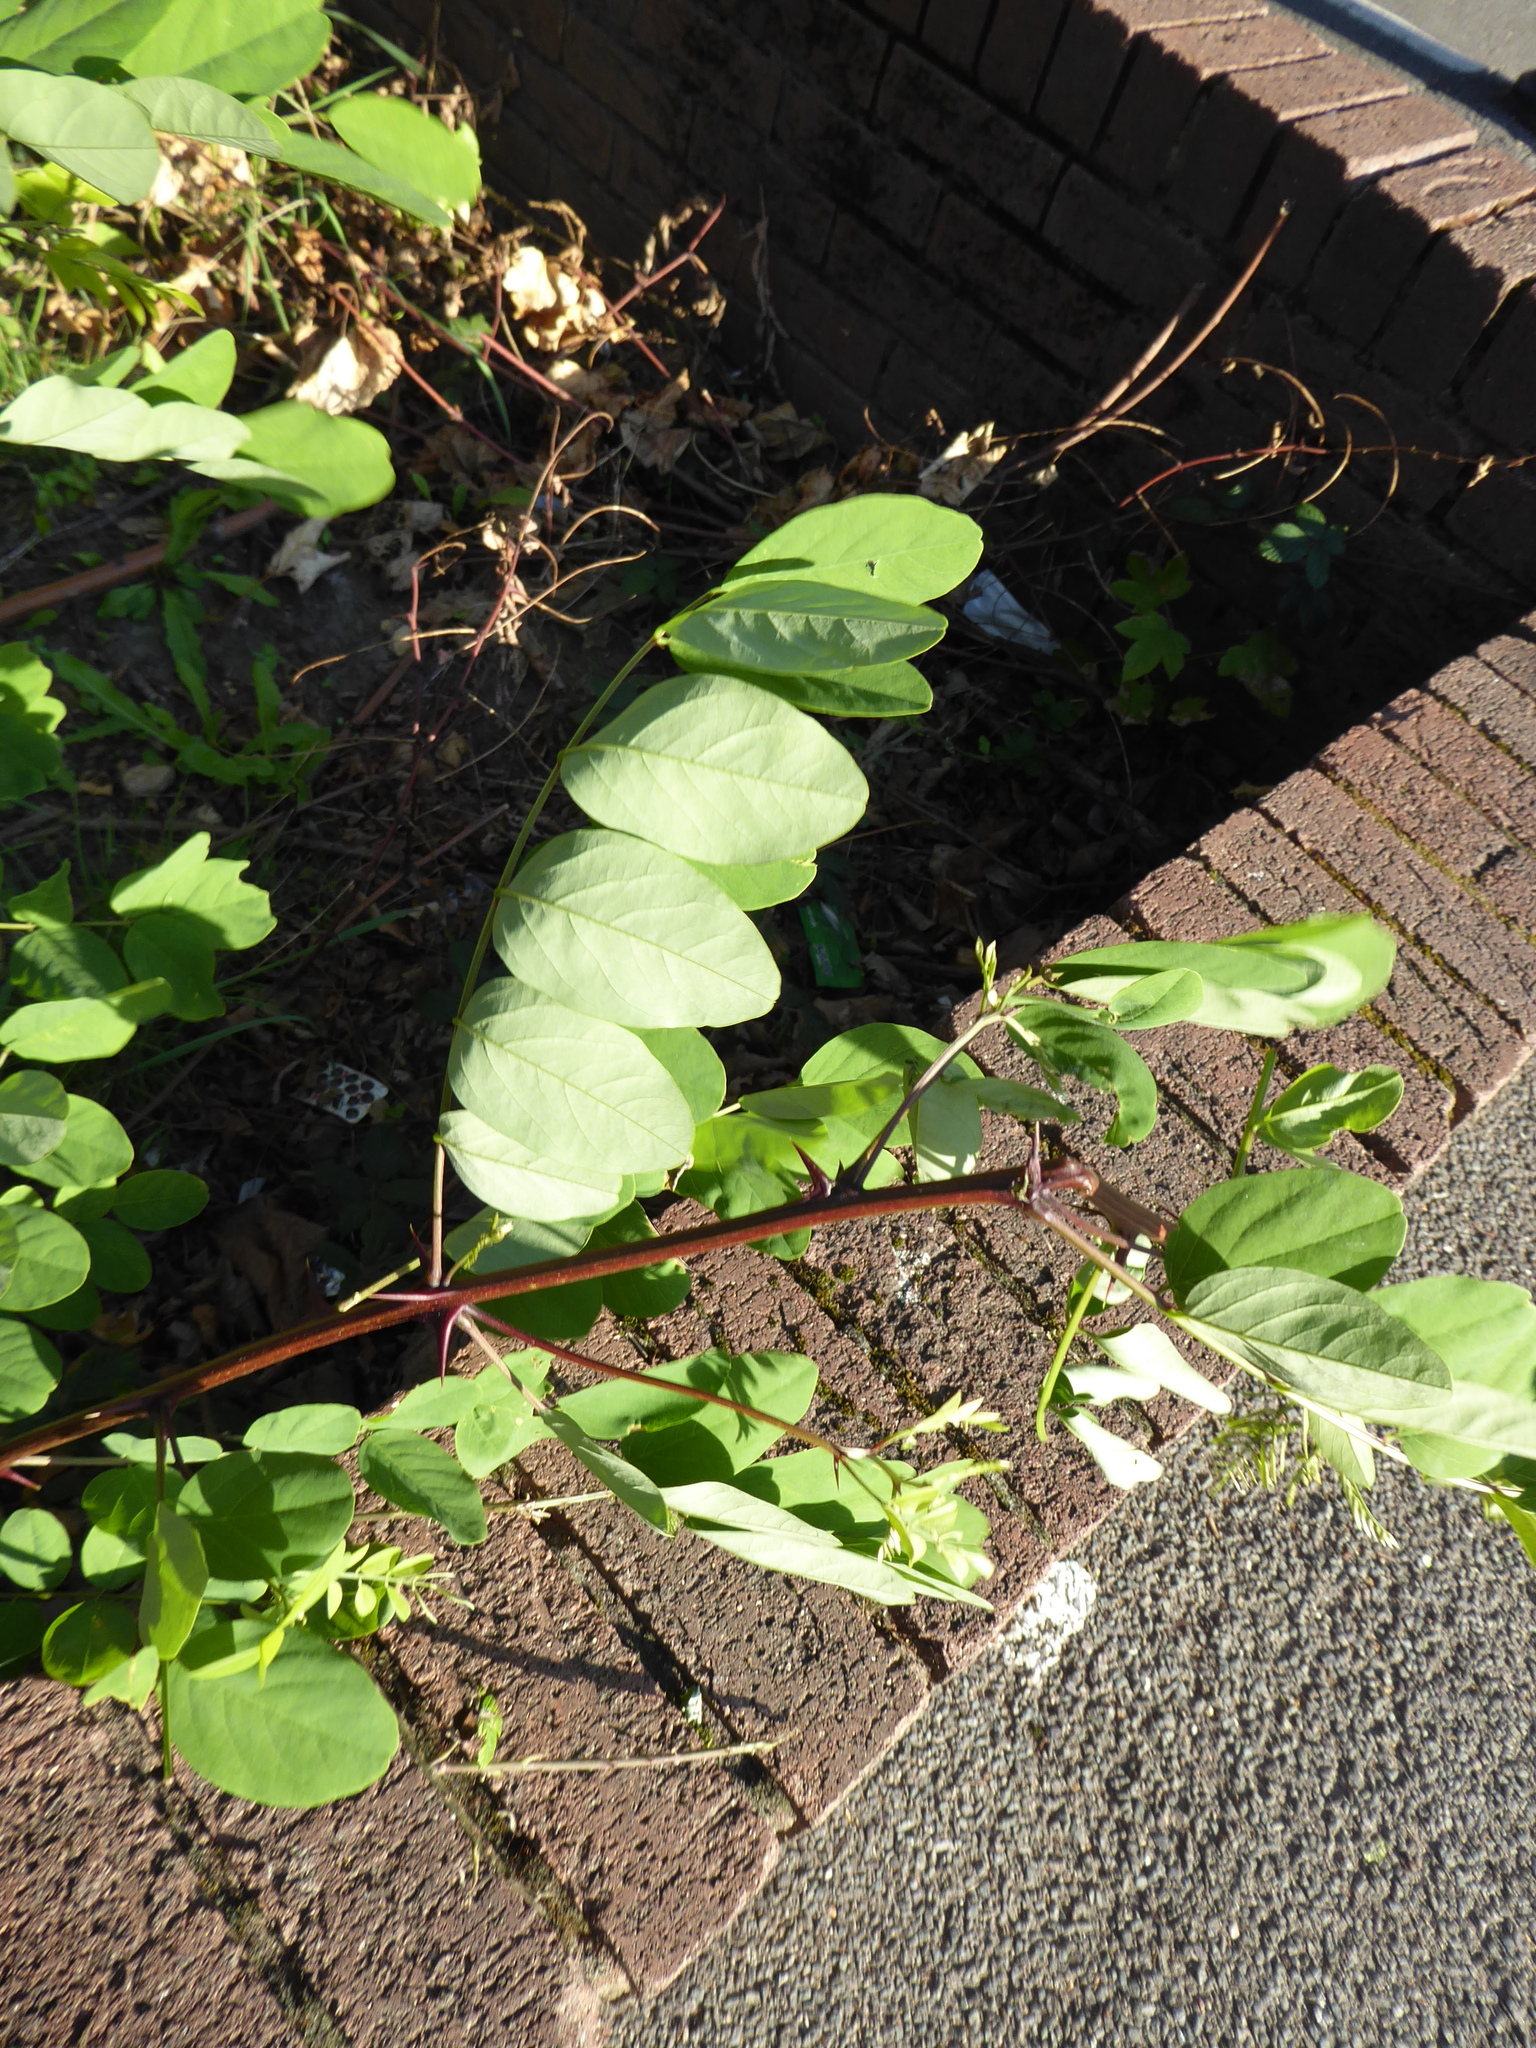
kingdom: Plantae
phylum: Tracheophyta
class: Magnoliopsida
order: Fabales
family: Fabaceae
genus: Robinia
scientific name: Robinia pseudoacacia
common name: Black locust
